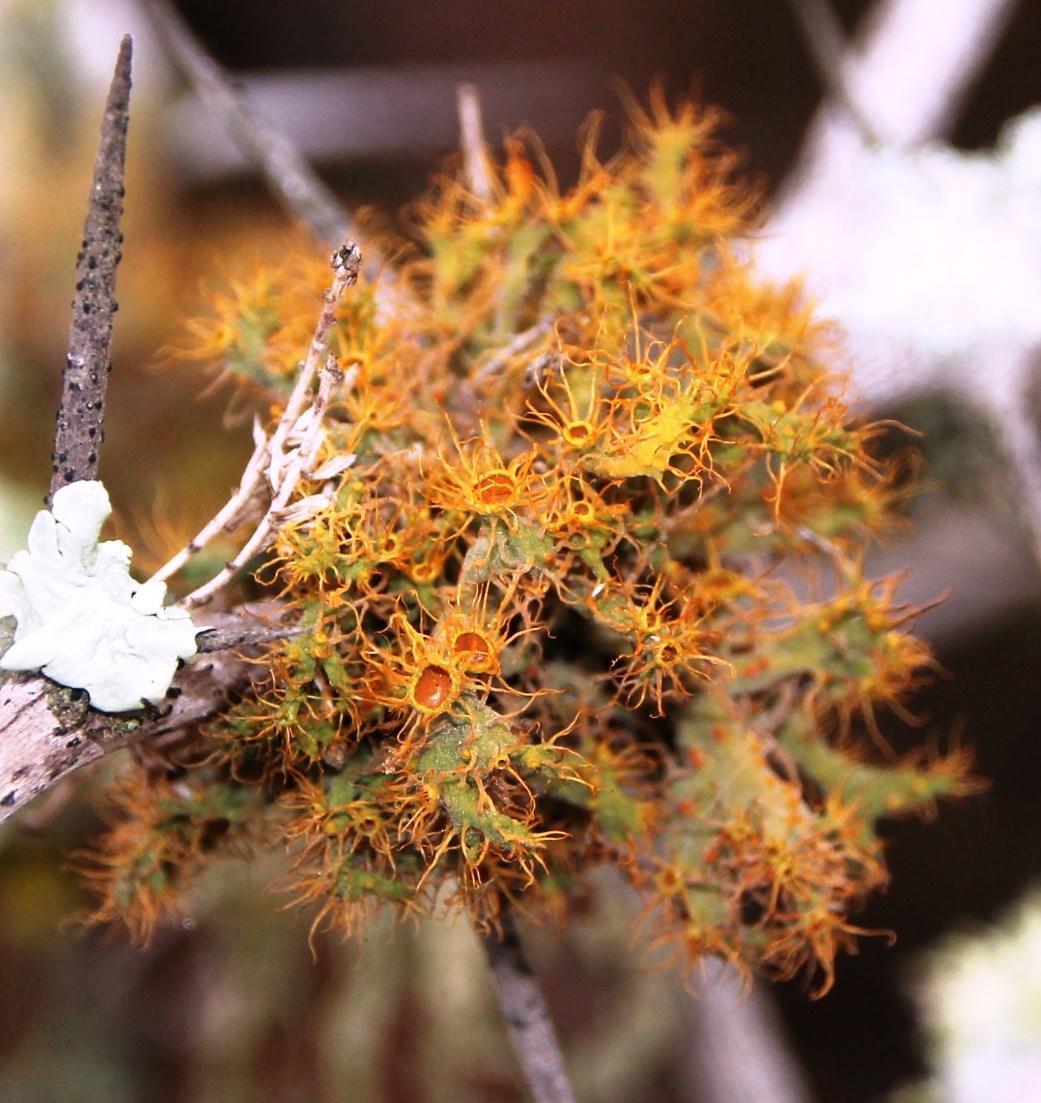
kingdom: Fungi
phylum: Ascomycota
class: Lecanoromycetes
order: Teloschistales
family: Teloschistaceae
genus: Teloschistes
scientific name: Teloschistes puber
